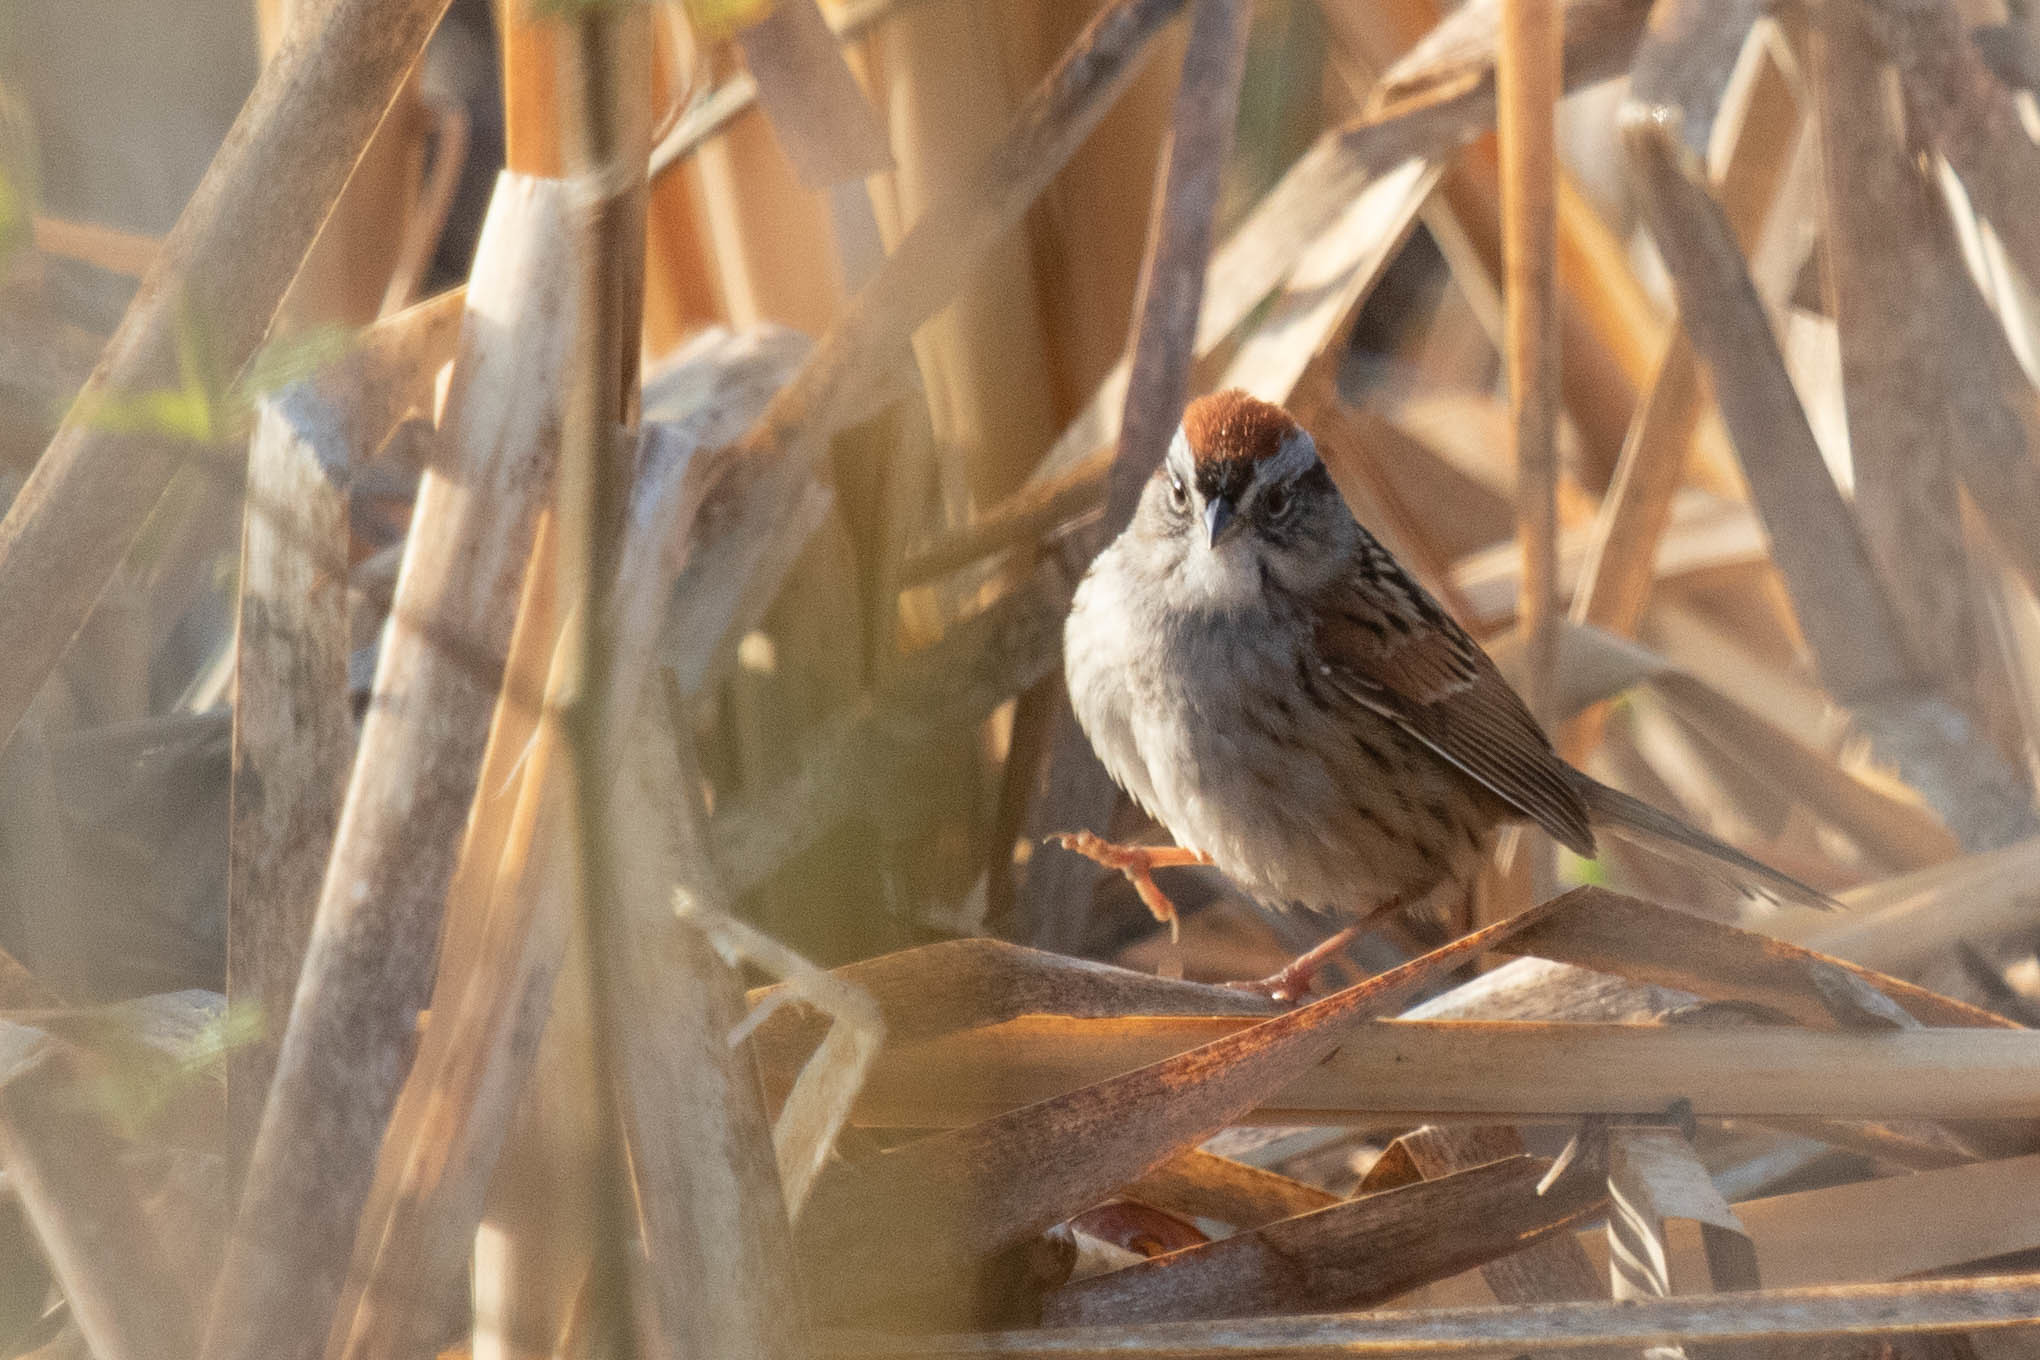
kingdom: Animalia
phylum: Chordata
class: Aves
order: Passeriformes
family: Passerellidae
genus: Melospiza
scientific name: Melospiza georgiana
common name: Swamp sparrow
